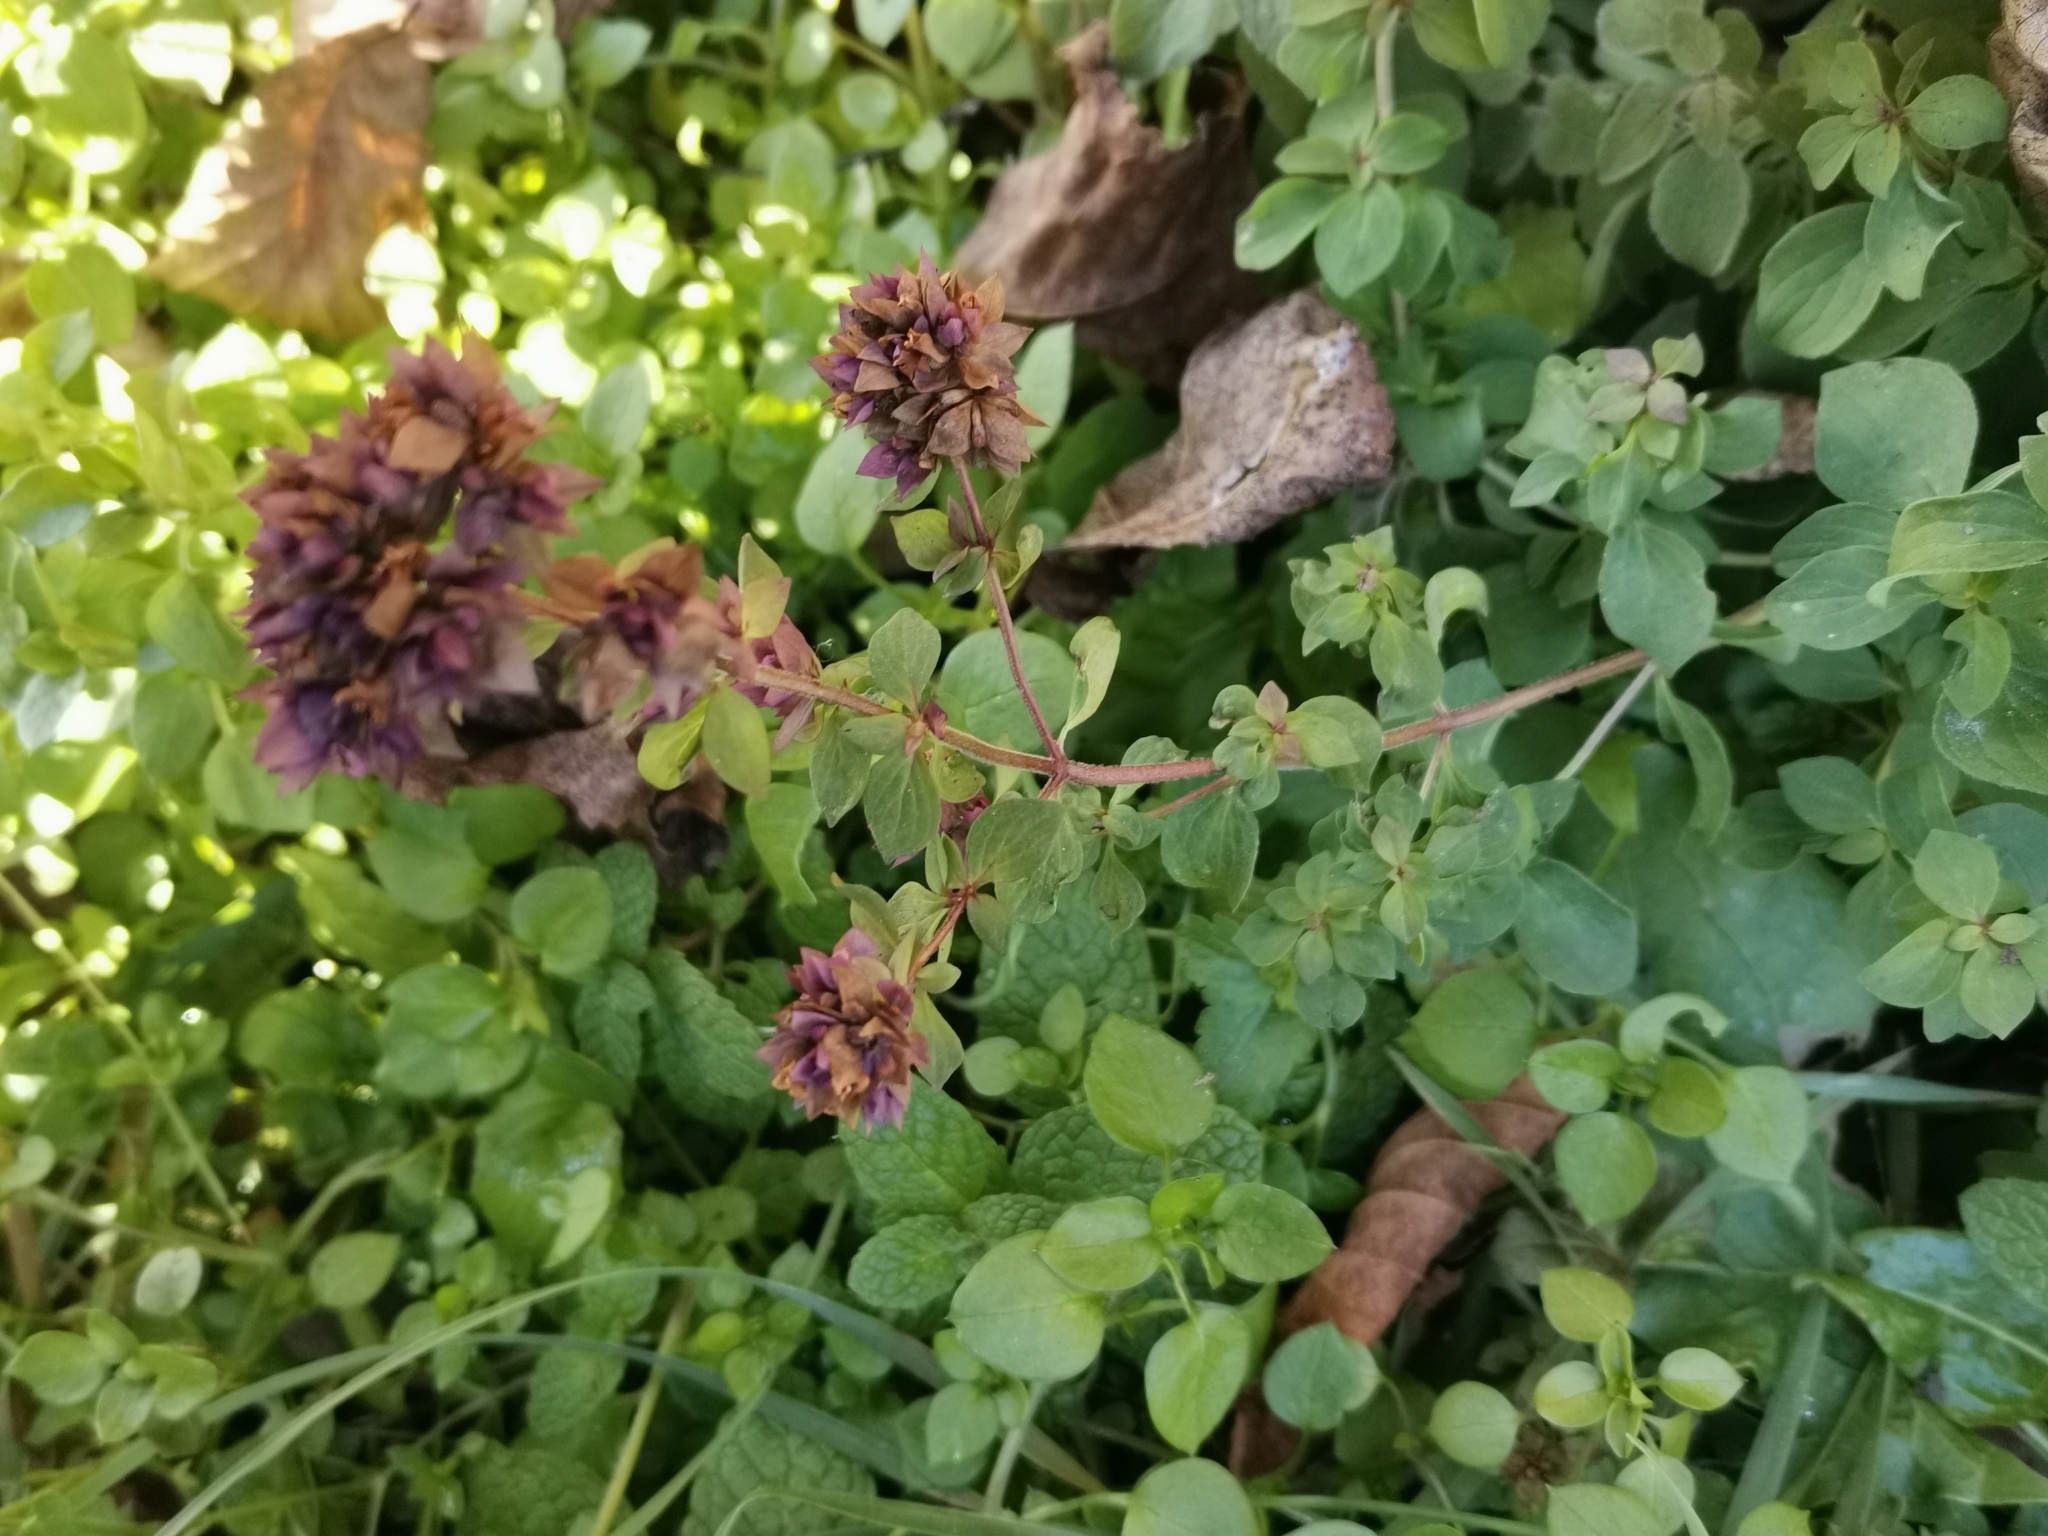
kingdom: Plantae
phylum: Tracheophyta
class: Magnoliopsida
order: Lamiales
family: Lamiaceae
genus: Origanum
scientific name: Origanum vulgare
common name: Wild marjoram
